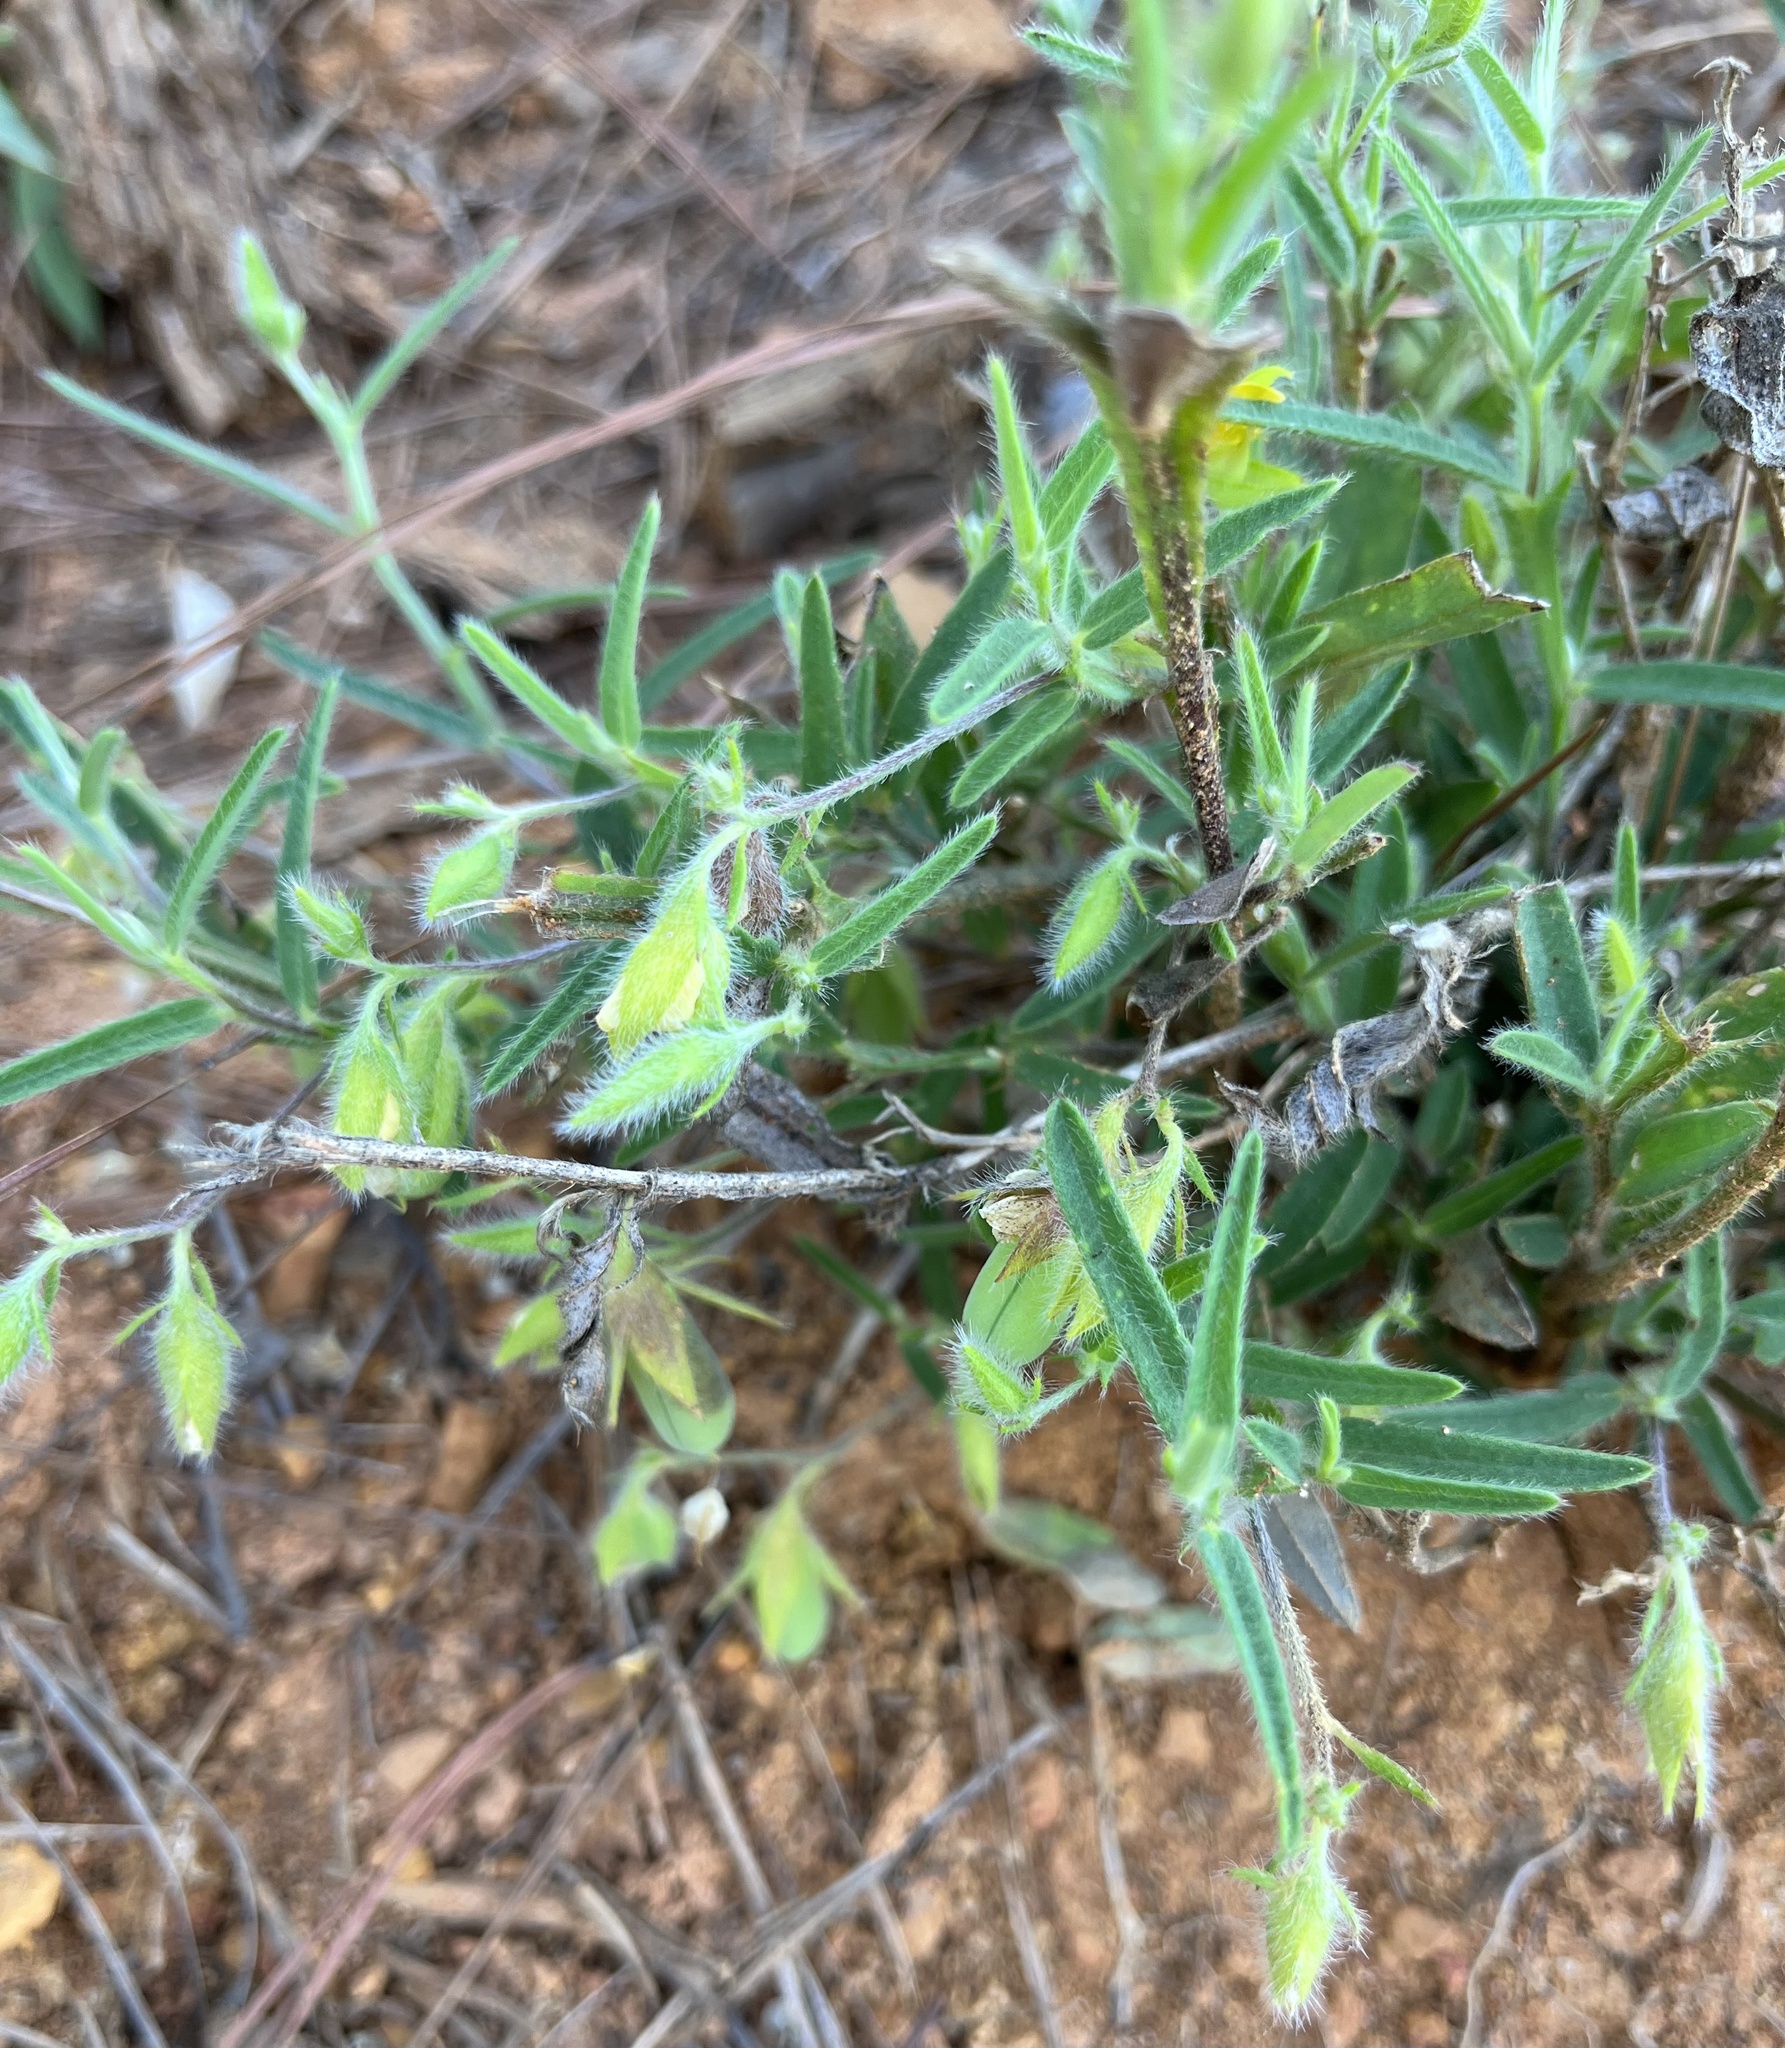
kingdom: Plantae
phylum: Tracheophyta
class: Magnoliopsida
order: Fabales
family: Fabaceae
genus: Crotalaria
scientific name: Crotalaria sagittalis
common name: Arrowhead rattlebox
